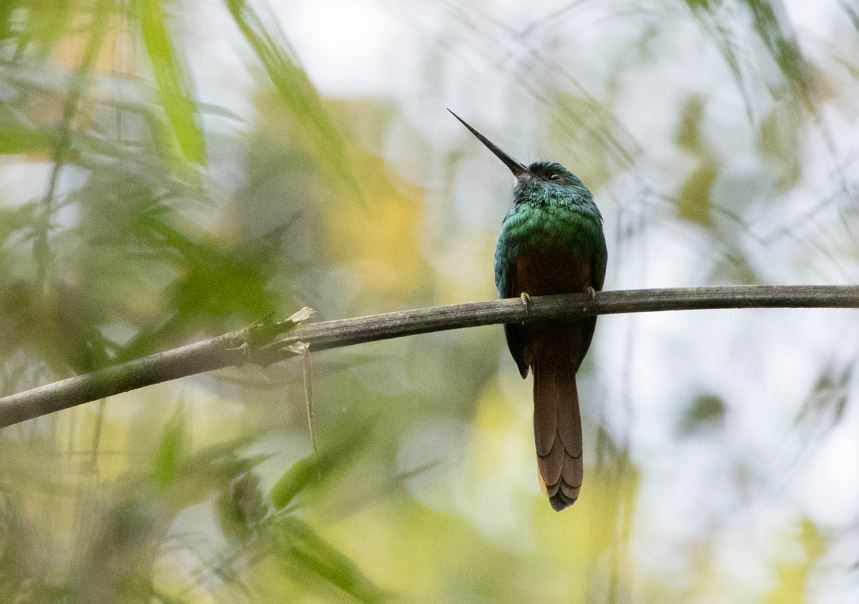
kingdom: Animalia
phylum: Chordata
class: Aves
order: Piciformes
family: Galbulidae
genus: Galbula
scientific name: Galbula cyanescens
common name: Bluish-fronted jacamar
